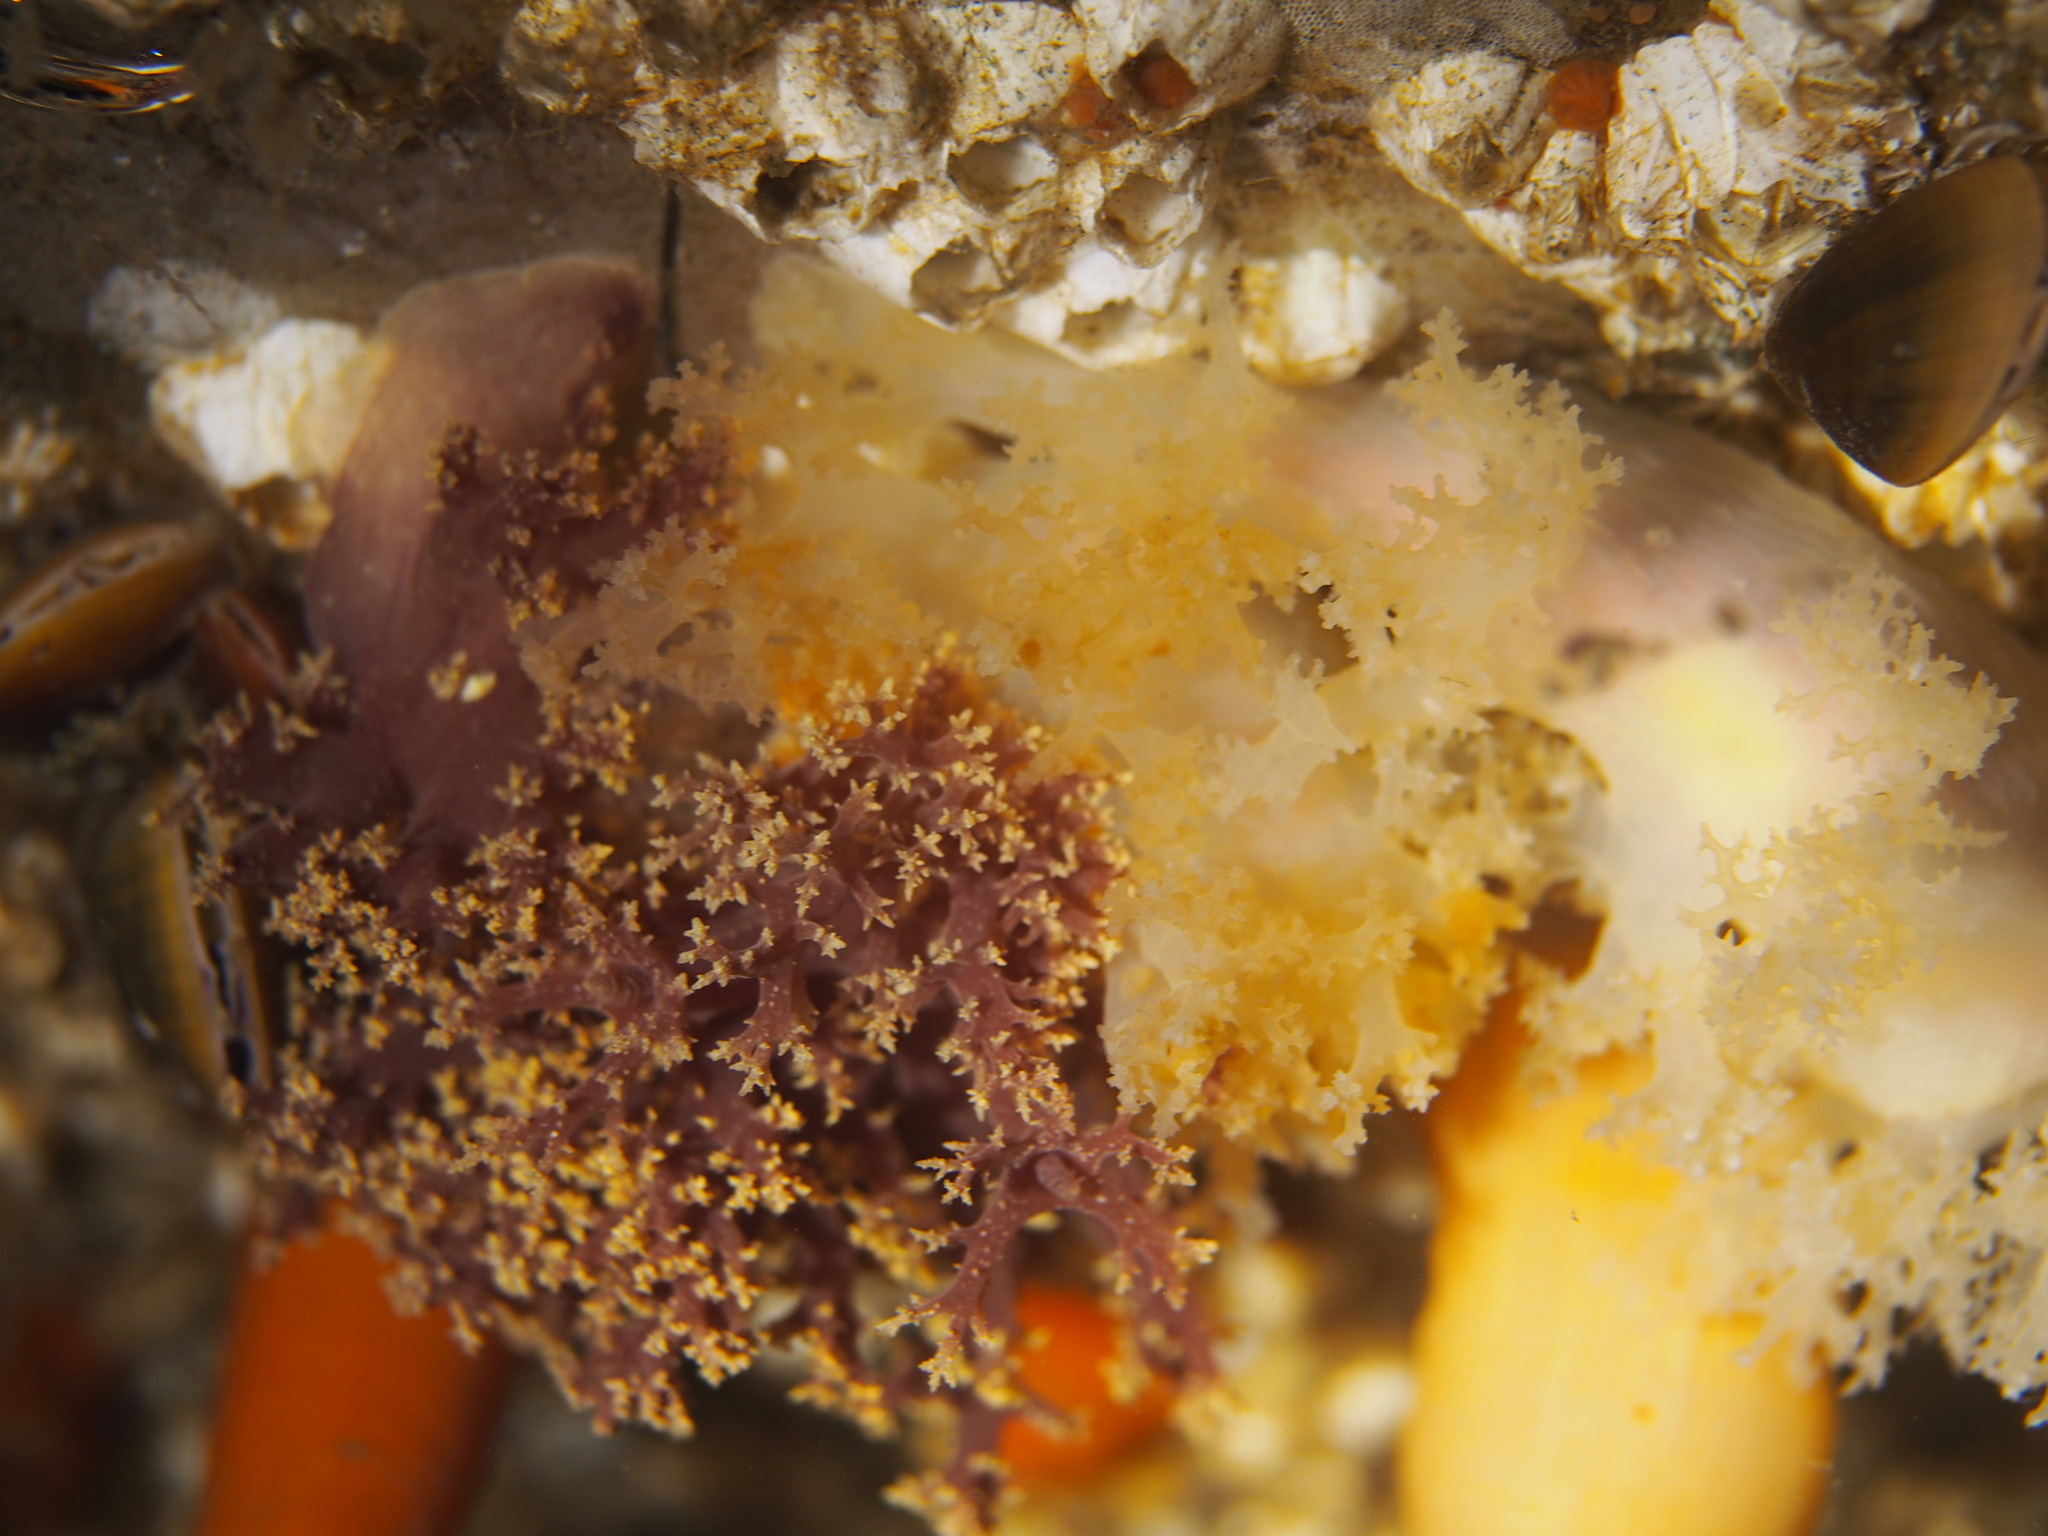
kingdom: Animalia
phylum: Mollusca
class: Gastropoda
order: Nudibranchia
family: Dendronotidae
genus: Dendronotus
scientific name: Dendronotus lacteus
